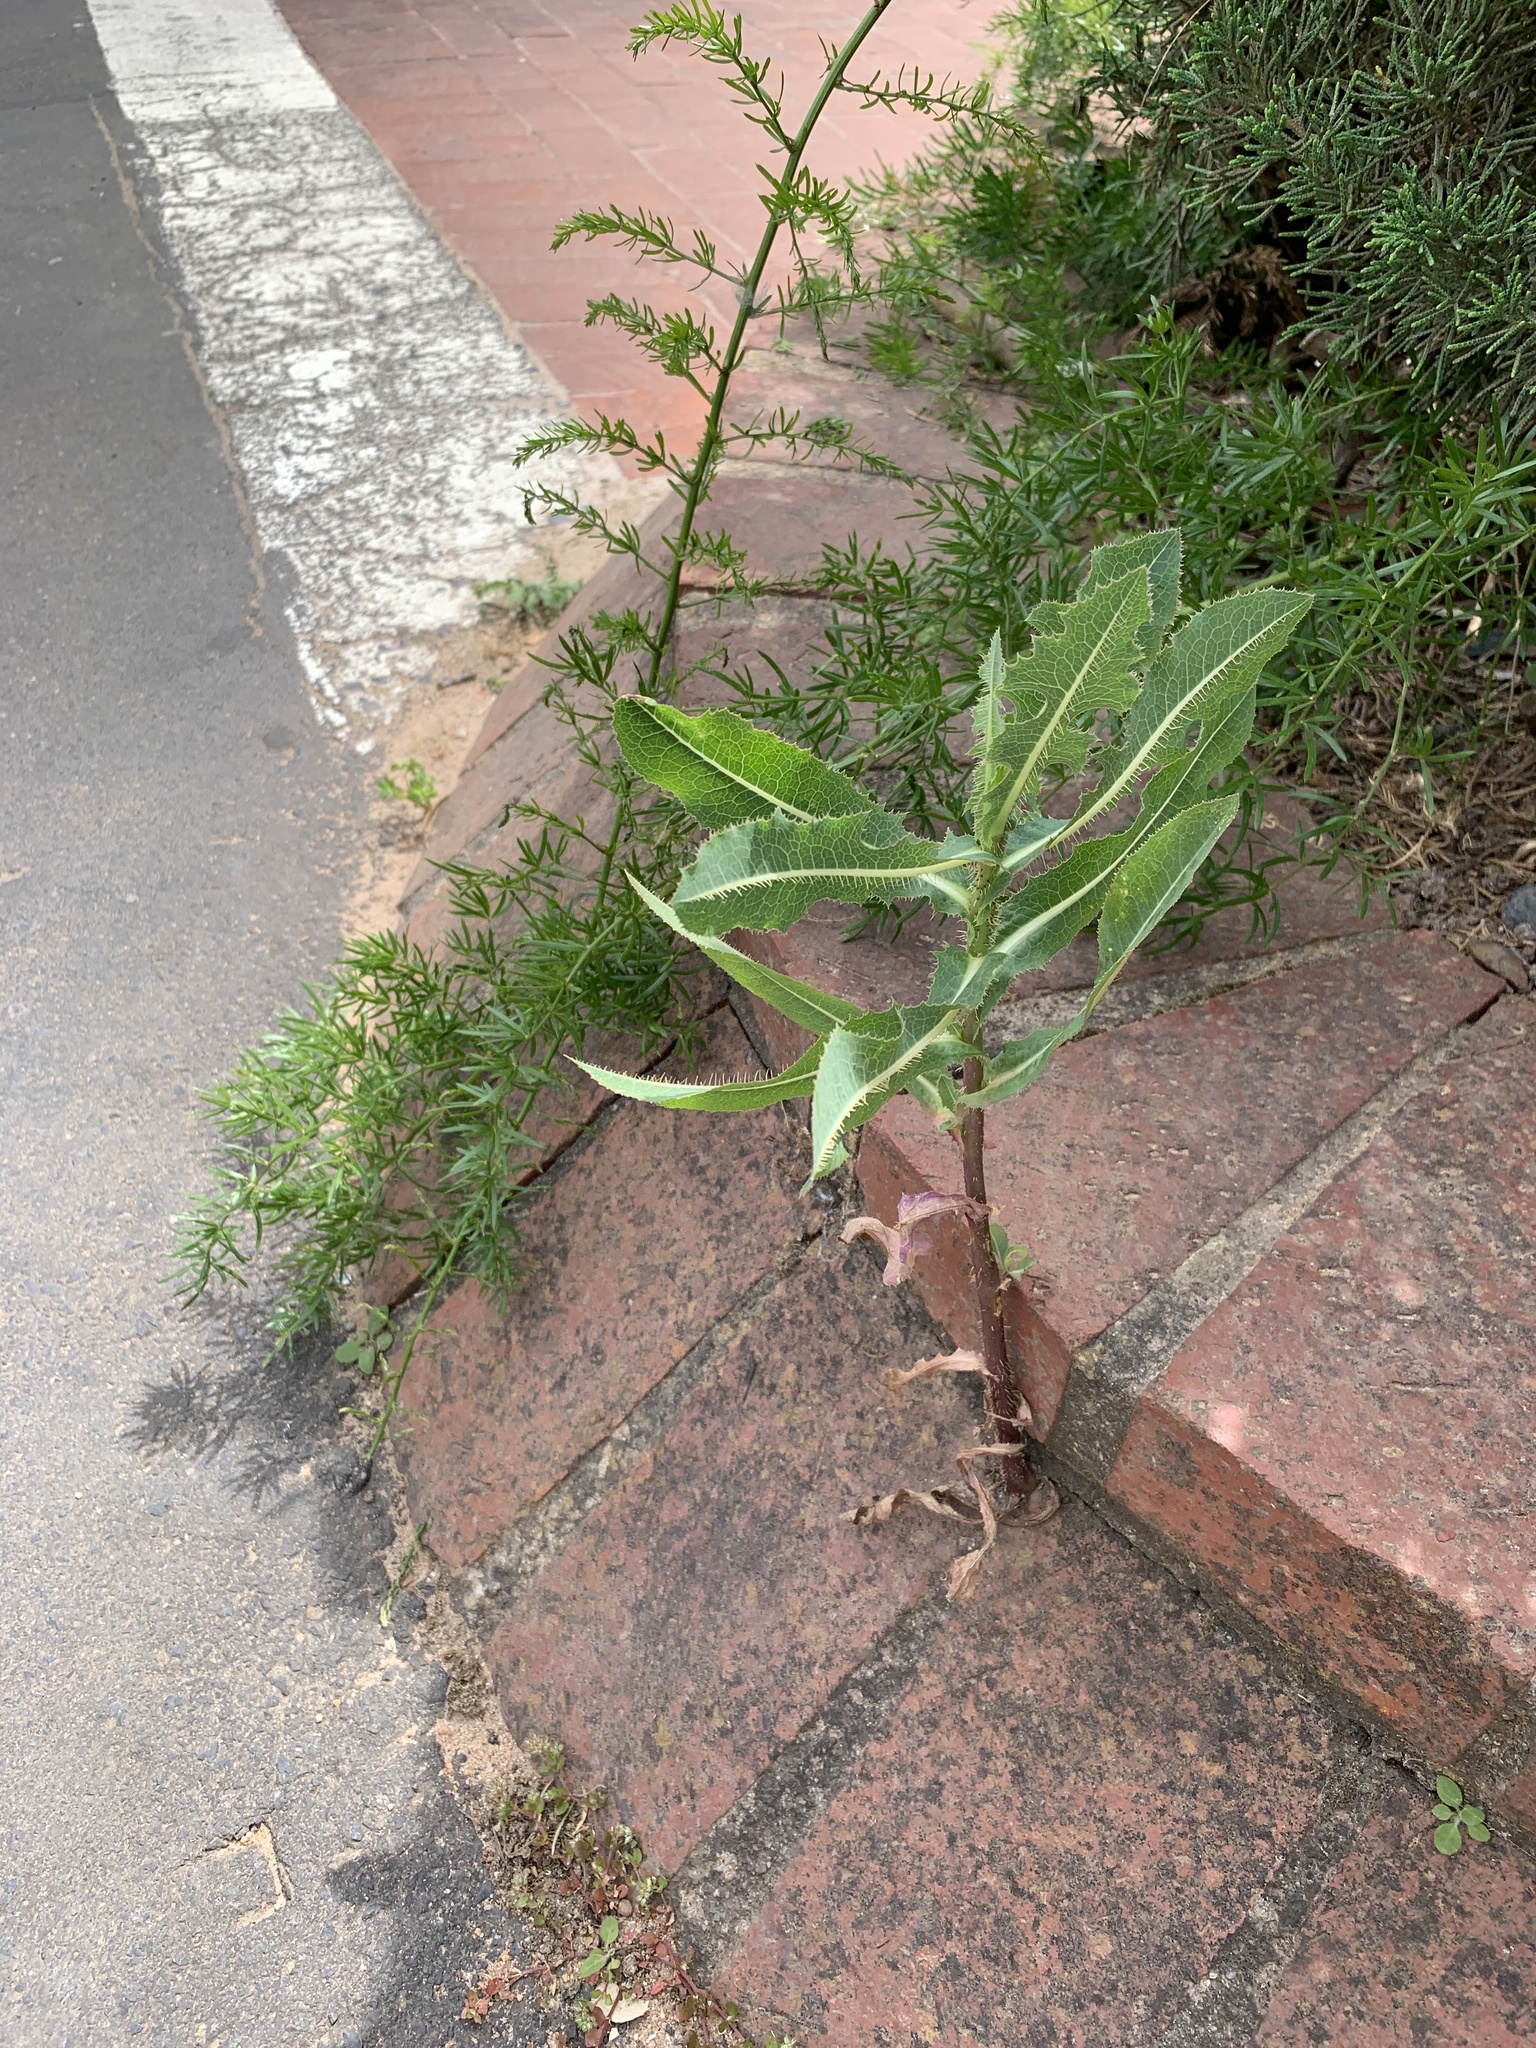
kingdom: Plantae
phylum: Tracheophyta
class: Magnoliopsida
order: Asterales
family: Asteraceae
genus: Lactuca
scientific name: Lactuca serriola
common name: Prickly lettuce
